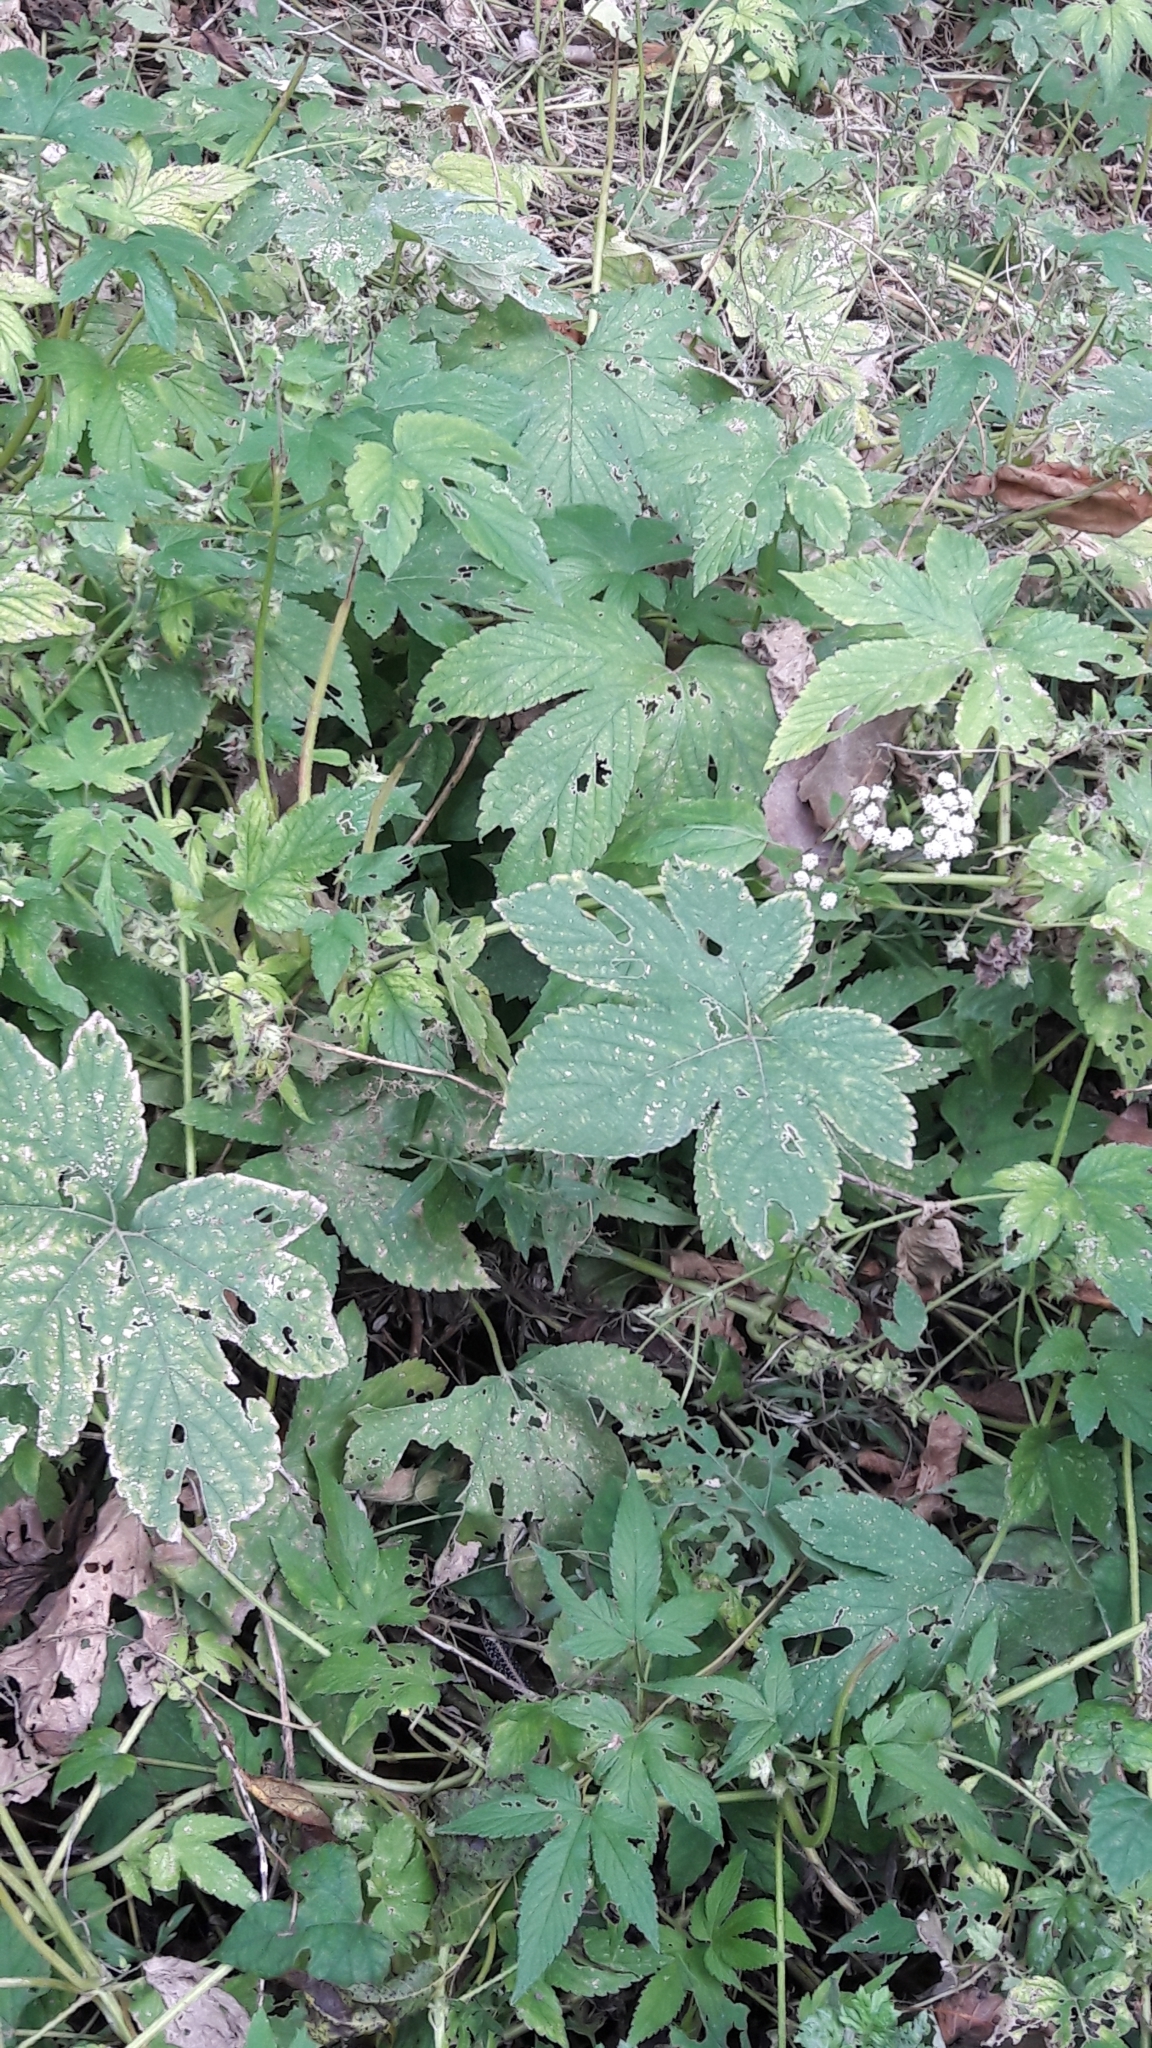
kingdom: Plantae
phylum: Tracheophyta
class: Magnoliopsida
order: Rosales
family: Cannabaceae
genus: Humulus
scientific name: Humulus scandens
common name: Japanese hop
